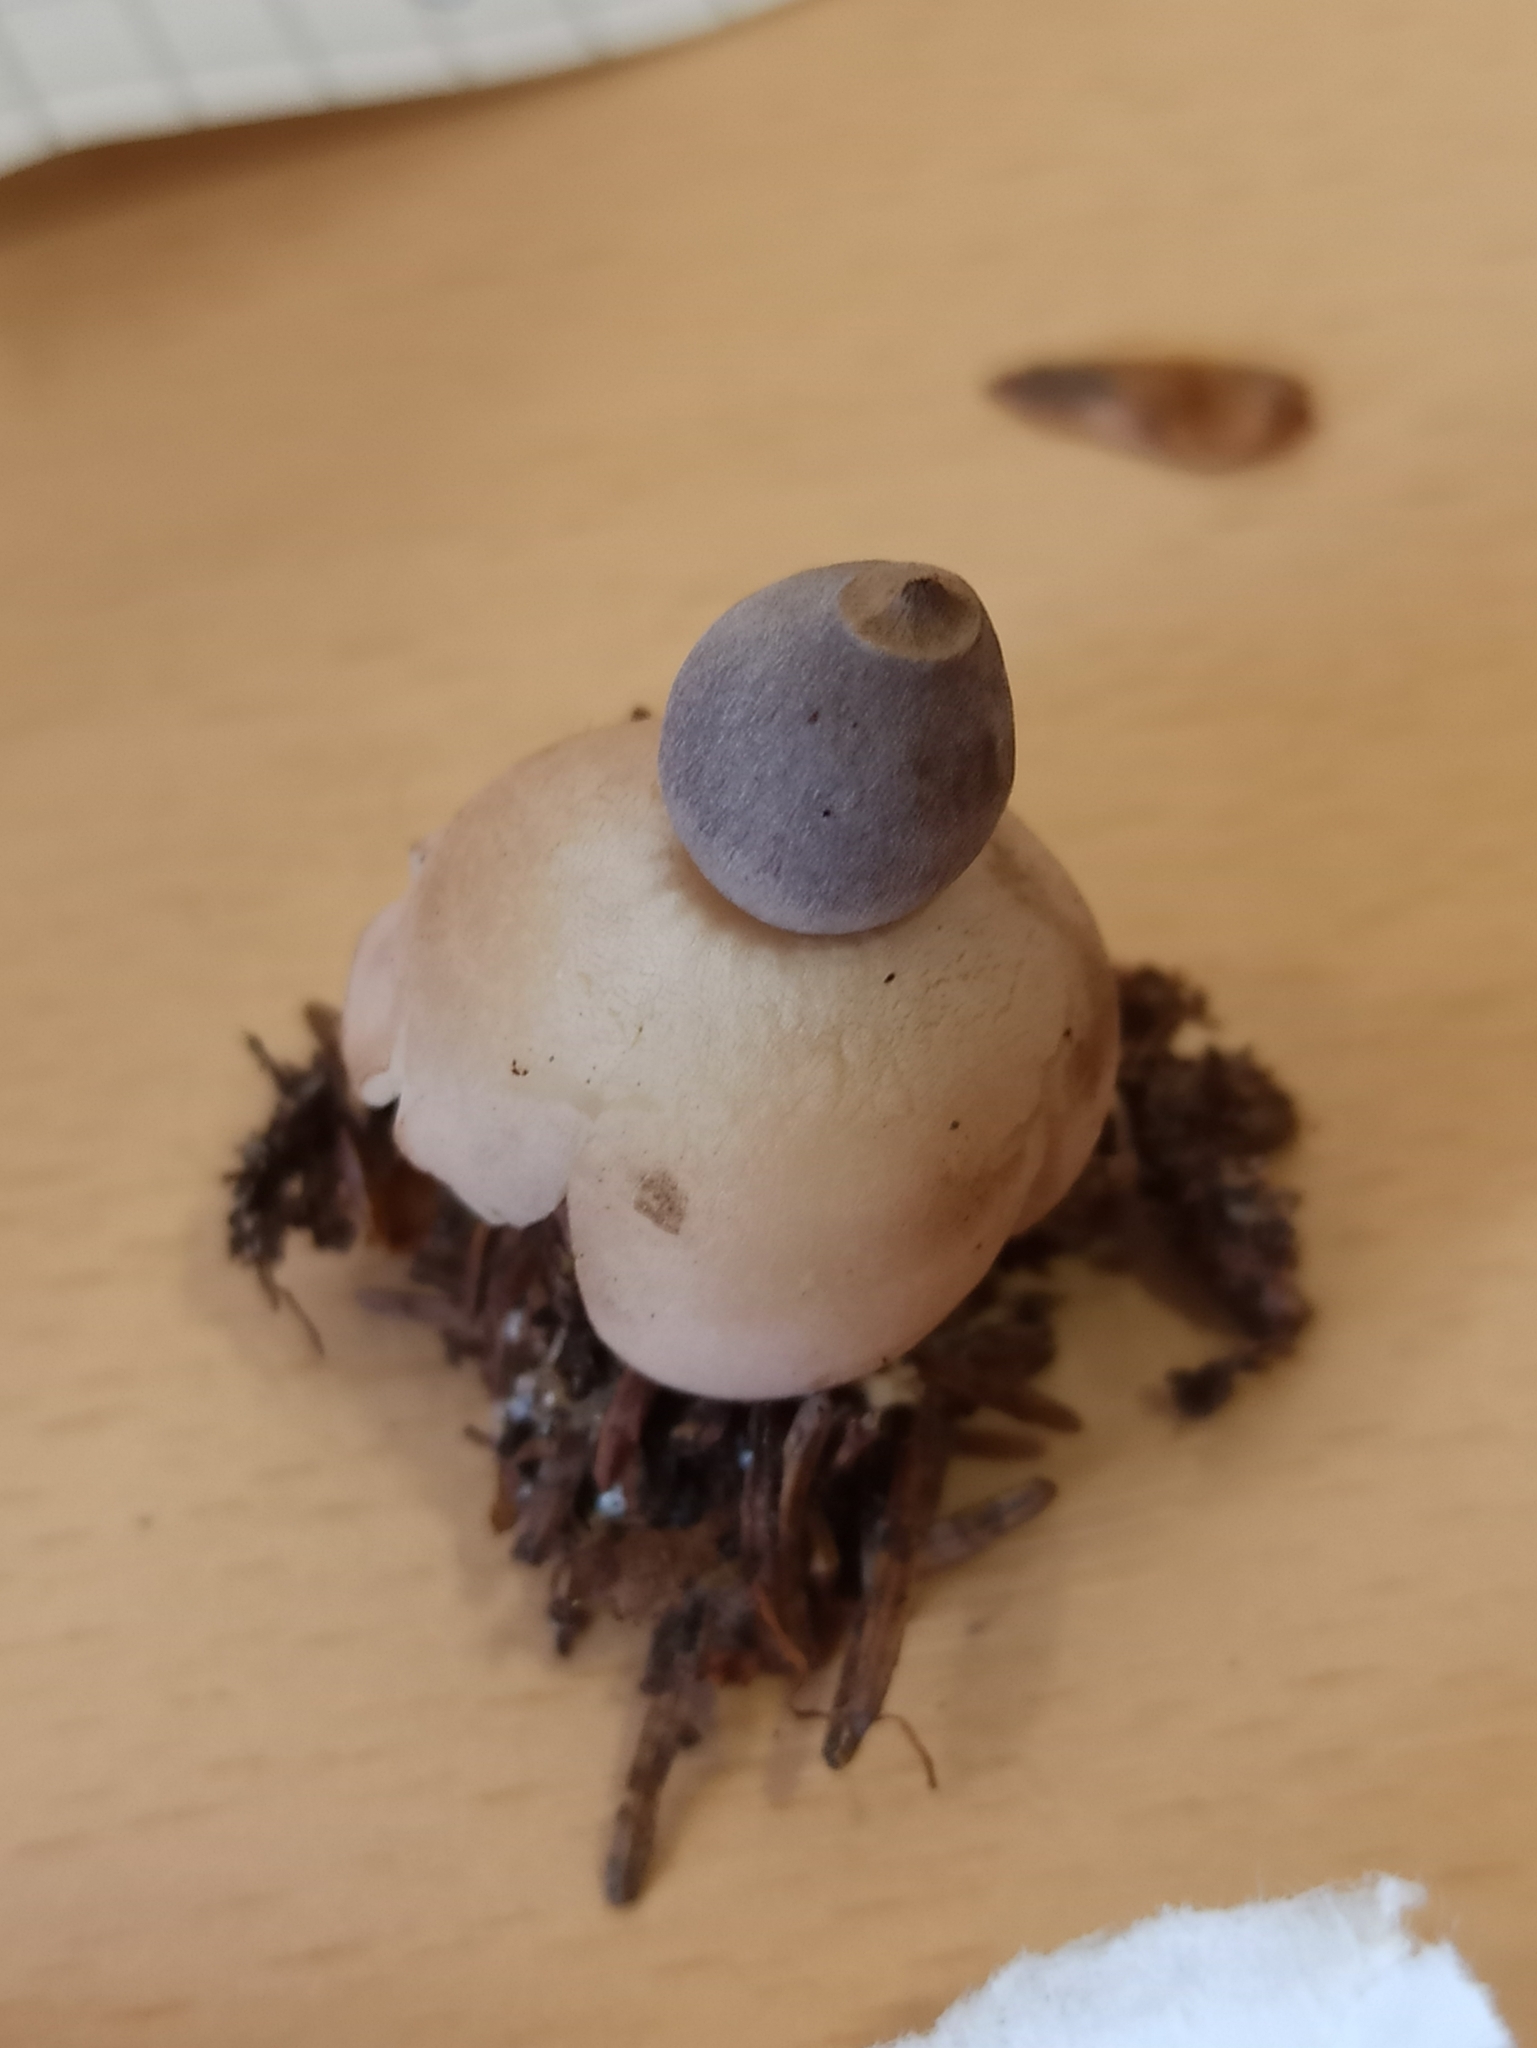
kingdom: Fungi
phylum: Basidiomycota
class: Agaricomycetes
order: Geastrales
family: Geastraceae
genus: Geastrum
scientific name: Geastrum quadrifidum
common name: Rayed earthstar
